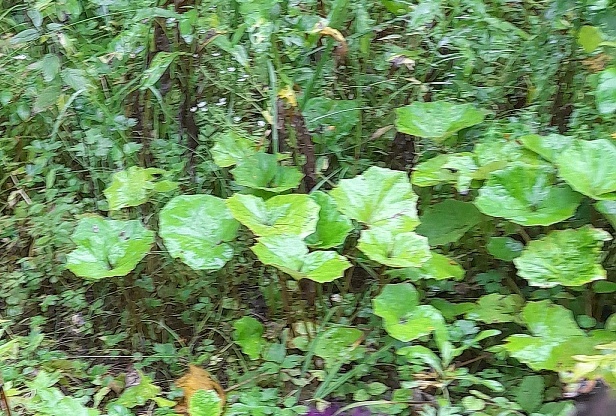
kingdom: Plantae
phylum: Tracheophyta
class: Magnoliopsida
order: Asterales
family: Asteraceae
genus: Tussilago
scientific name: Tussilago farfara
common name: Coltsfoot
